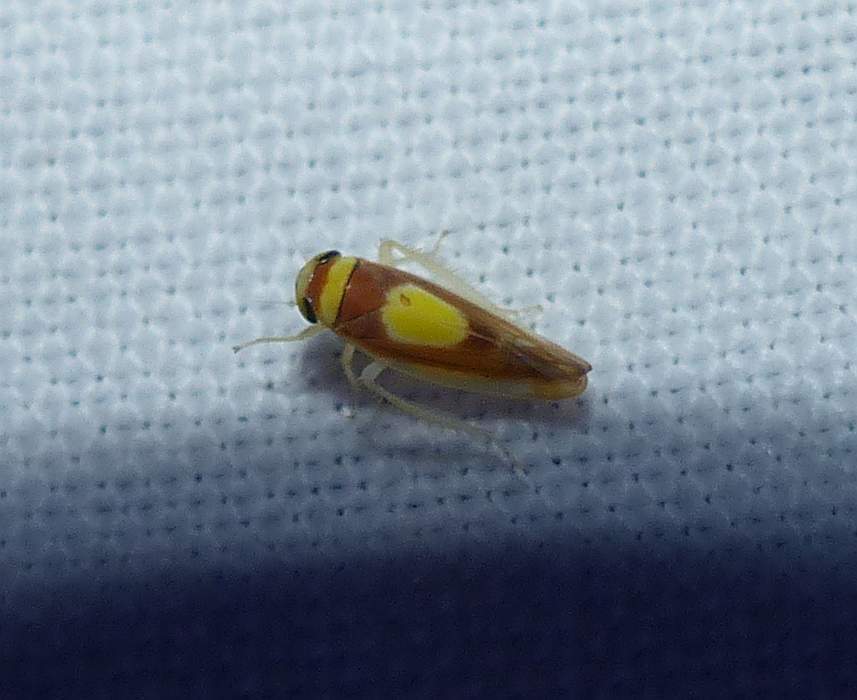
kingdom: Animalia
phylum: Arthropoda
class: Insecta
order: Hemiptera
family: Cicadellidae
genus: Colladonus
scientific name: Colladonus clitellarius
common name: The saddleback leafhopper
